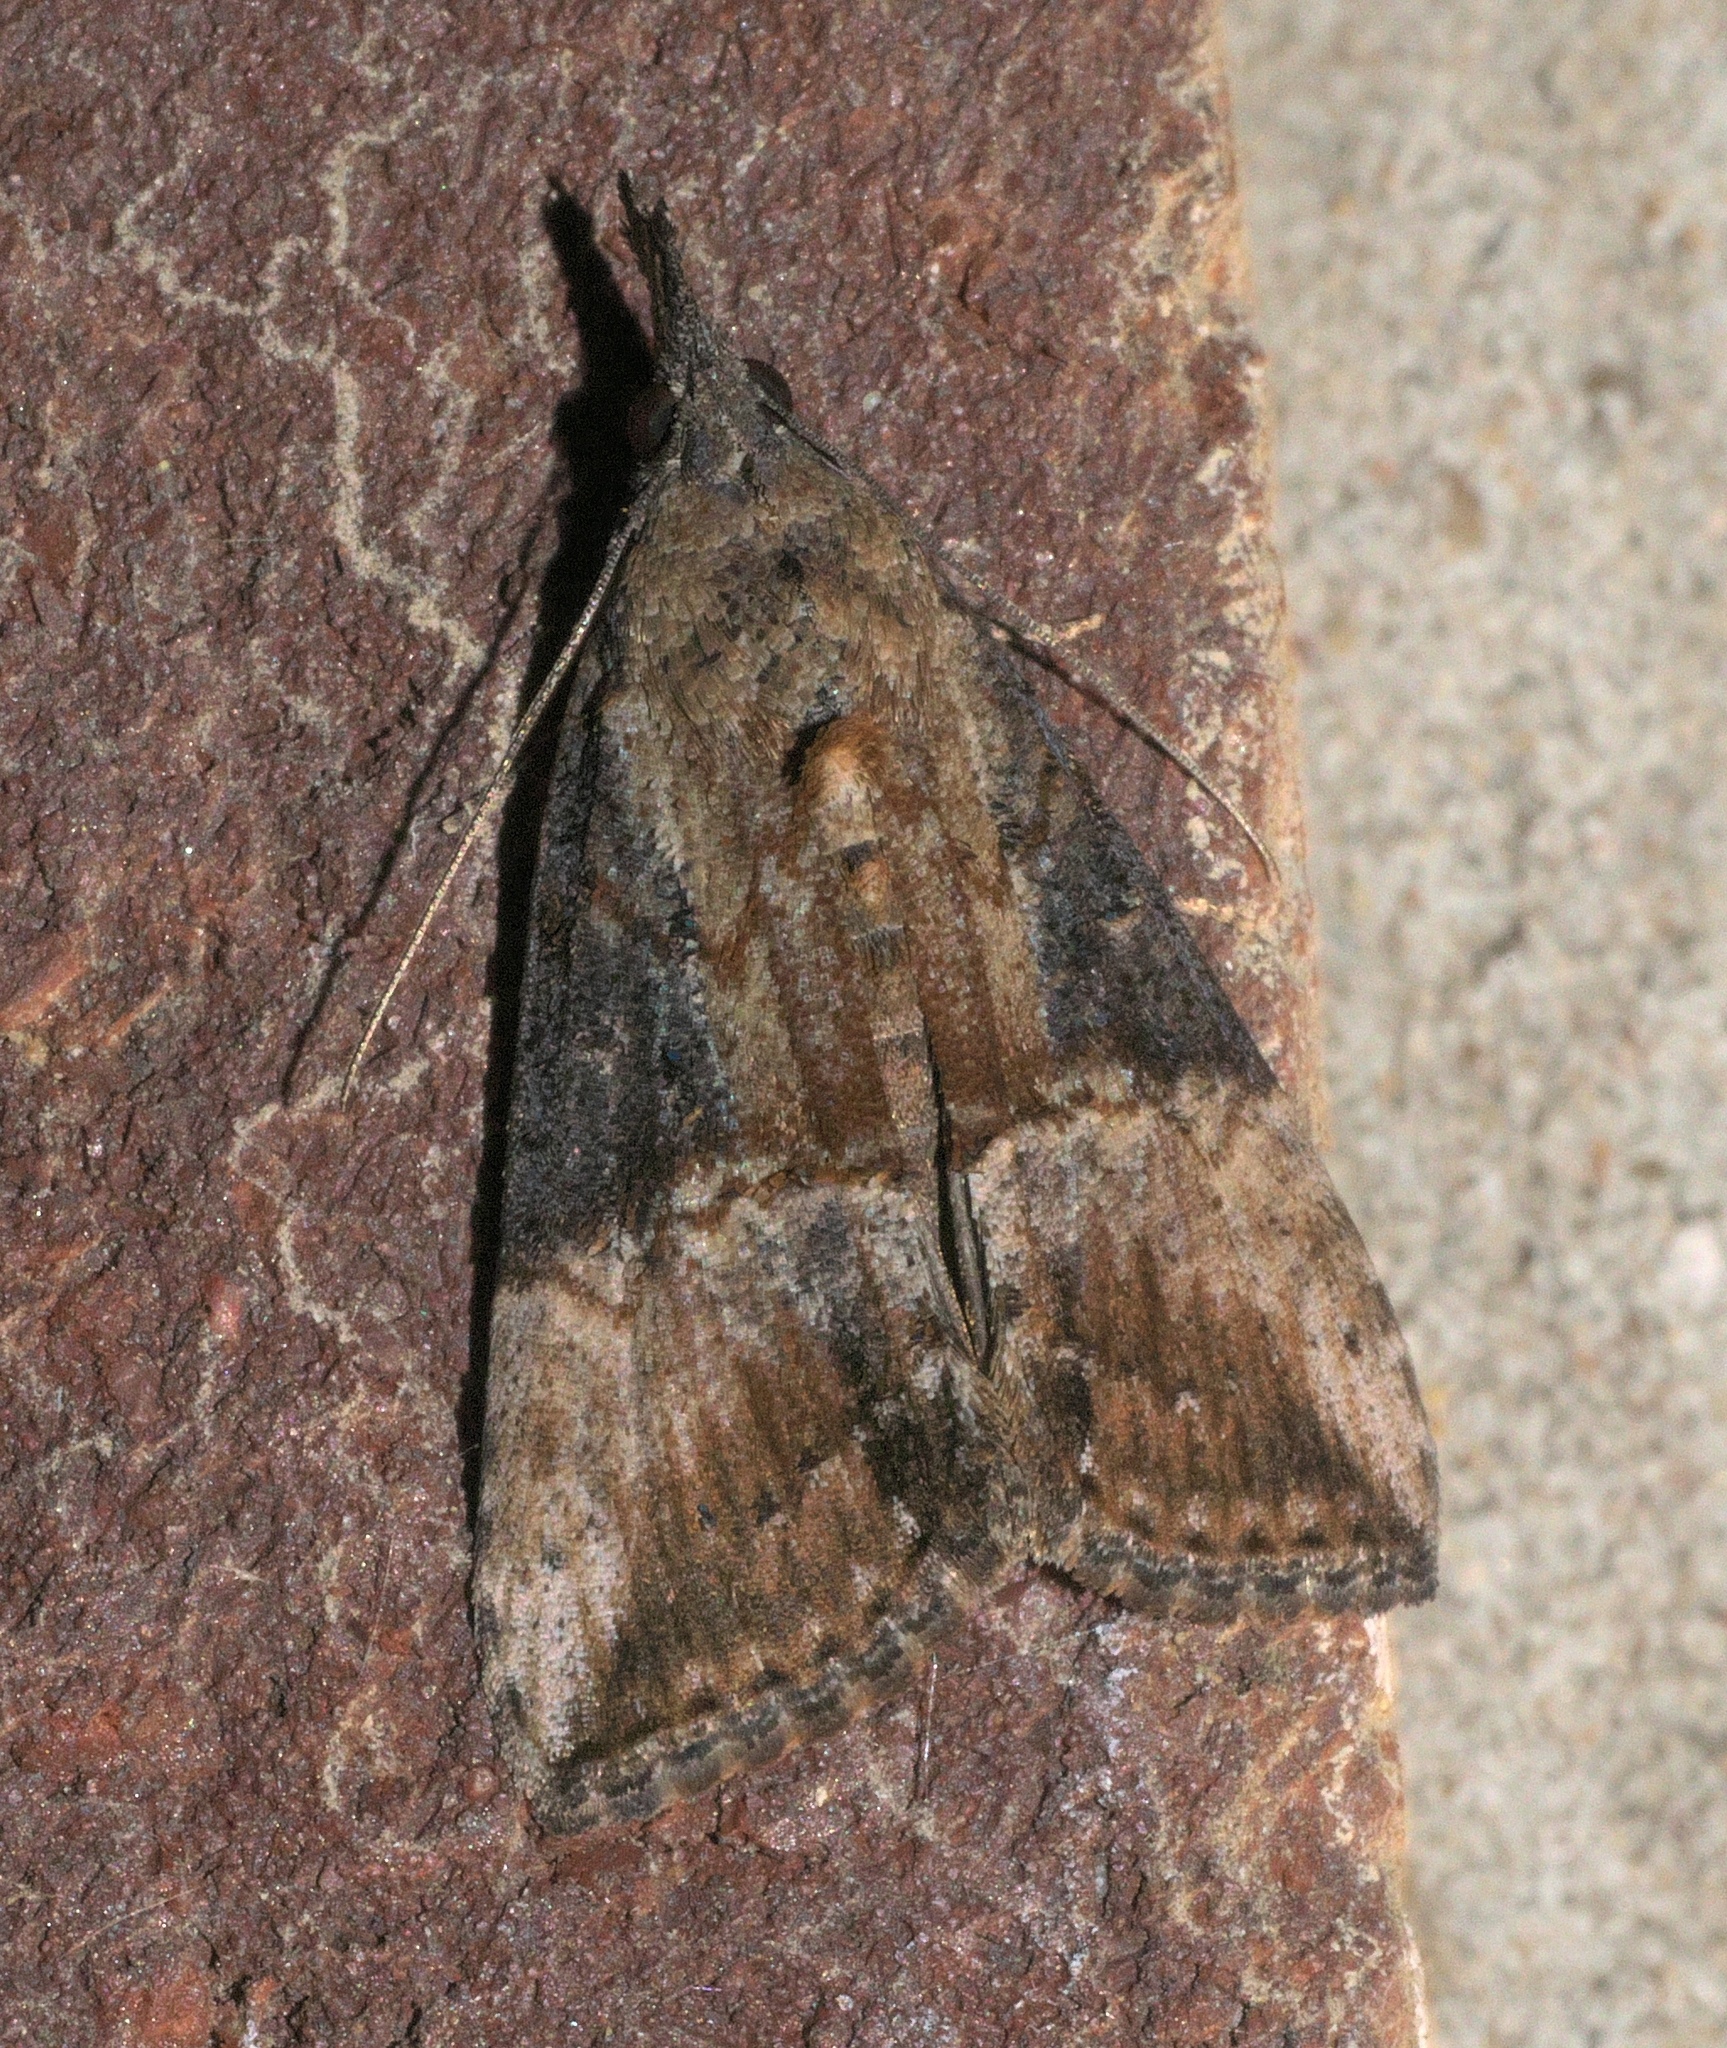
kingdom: Animalia
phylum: Arthropoda
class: Insecta
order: Lepidoptera
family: Erebidae
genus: Hypena
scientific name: Hypena scabra
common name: Green cloverworm
